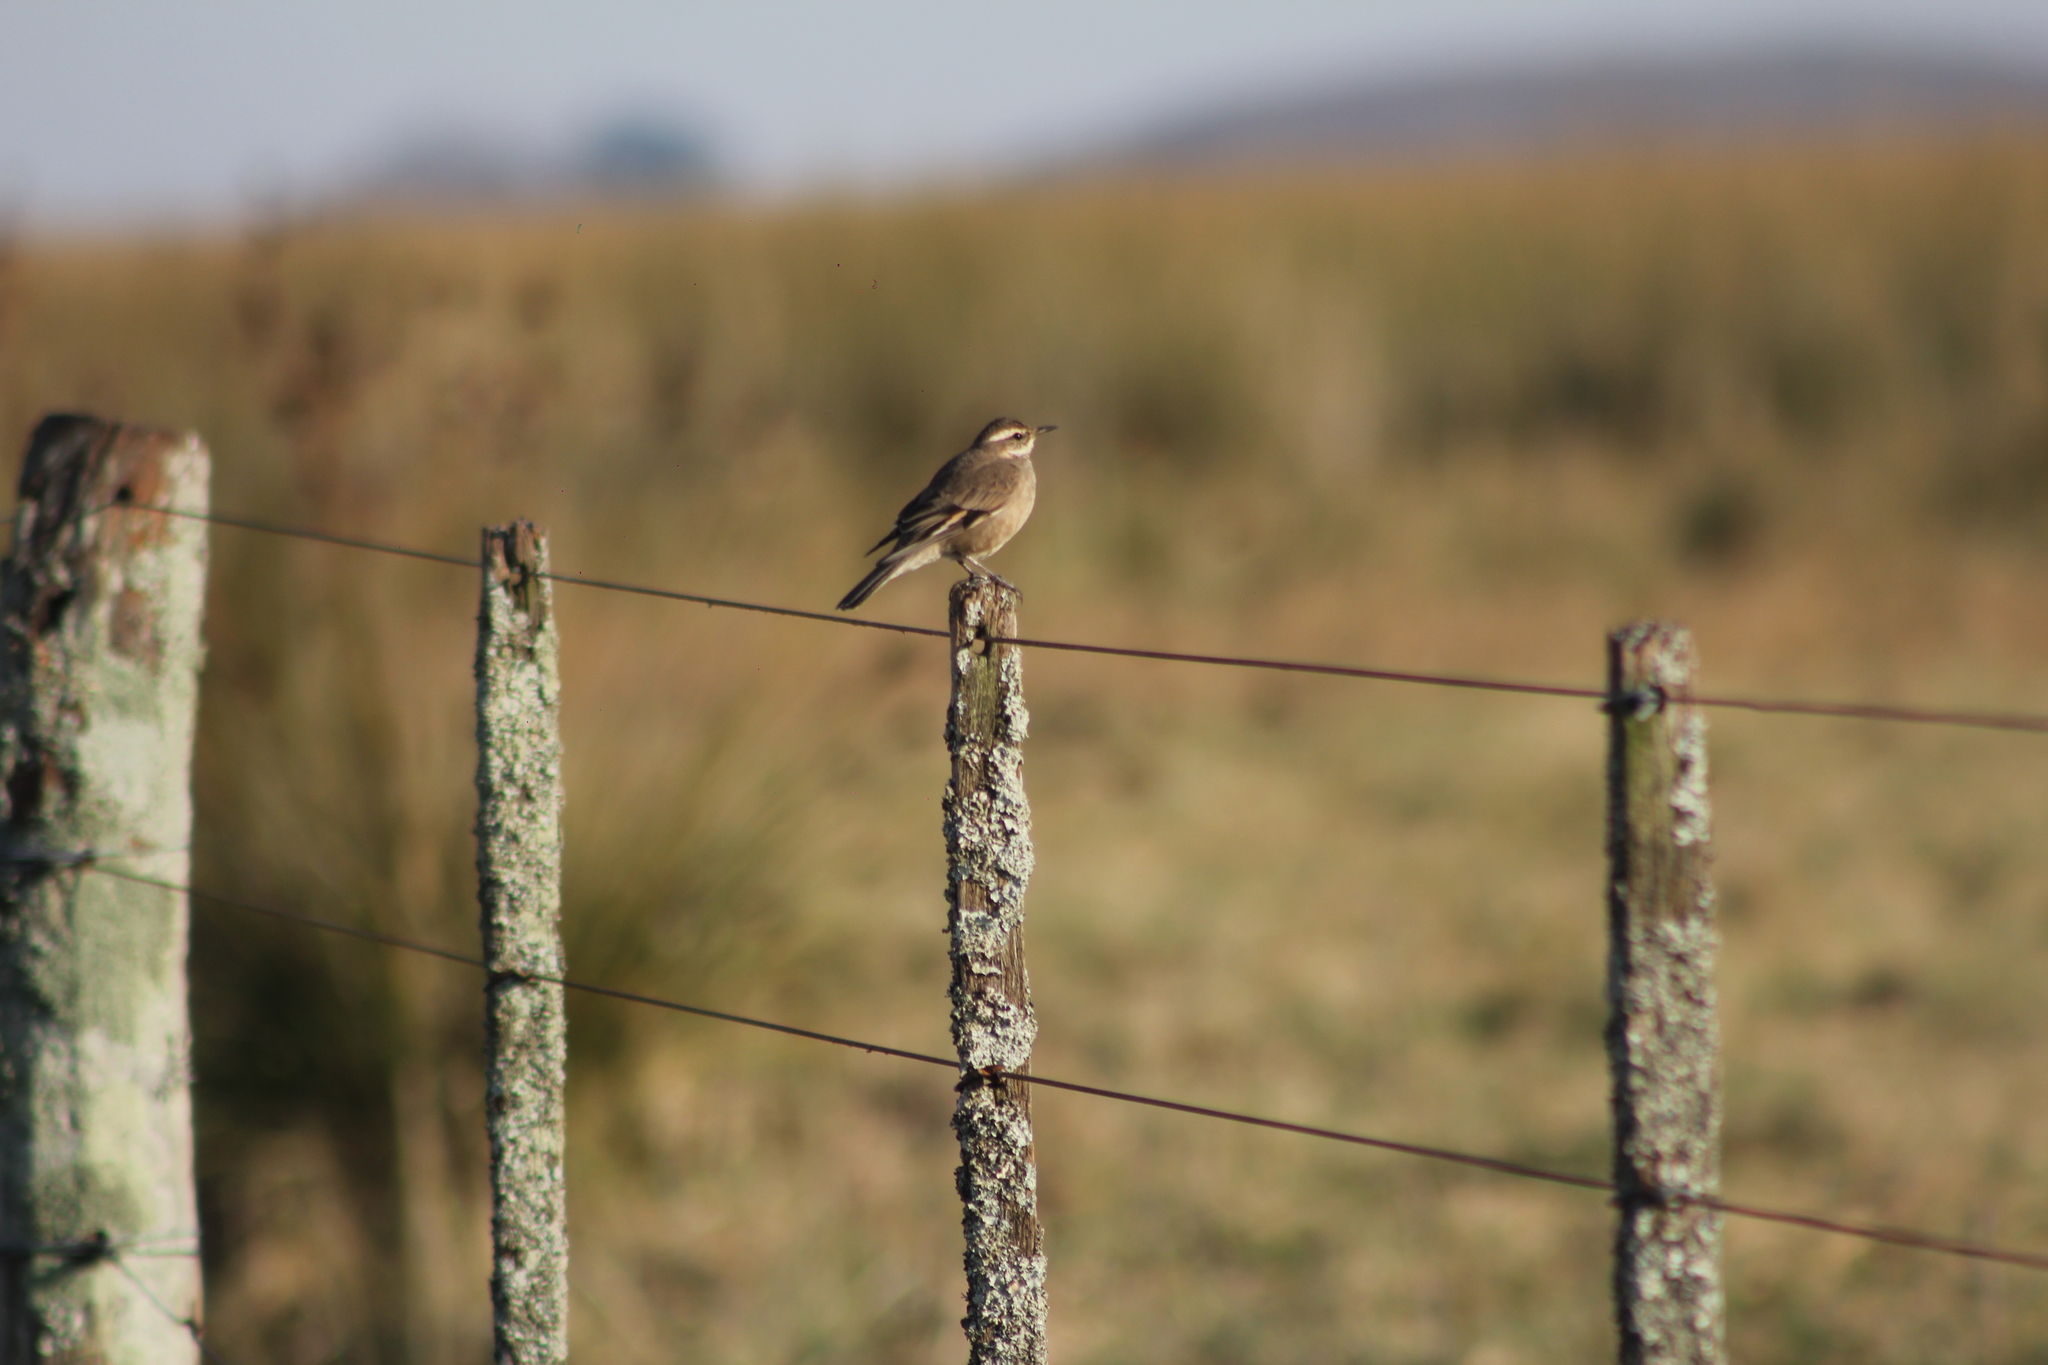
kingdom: Animalia
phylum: Chordata
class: Aves
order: Passeriformes
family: Furnariidae
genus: Cinclodes
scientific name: Cinclodes fuscus
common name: Buff-winged cinclodes
